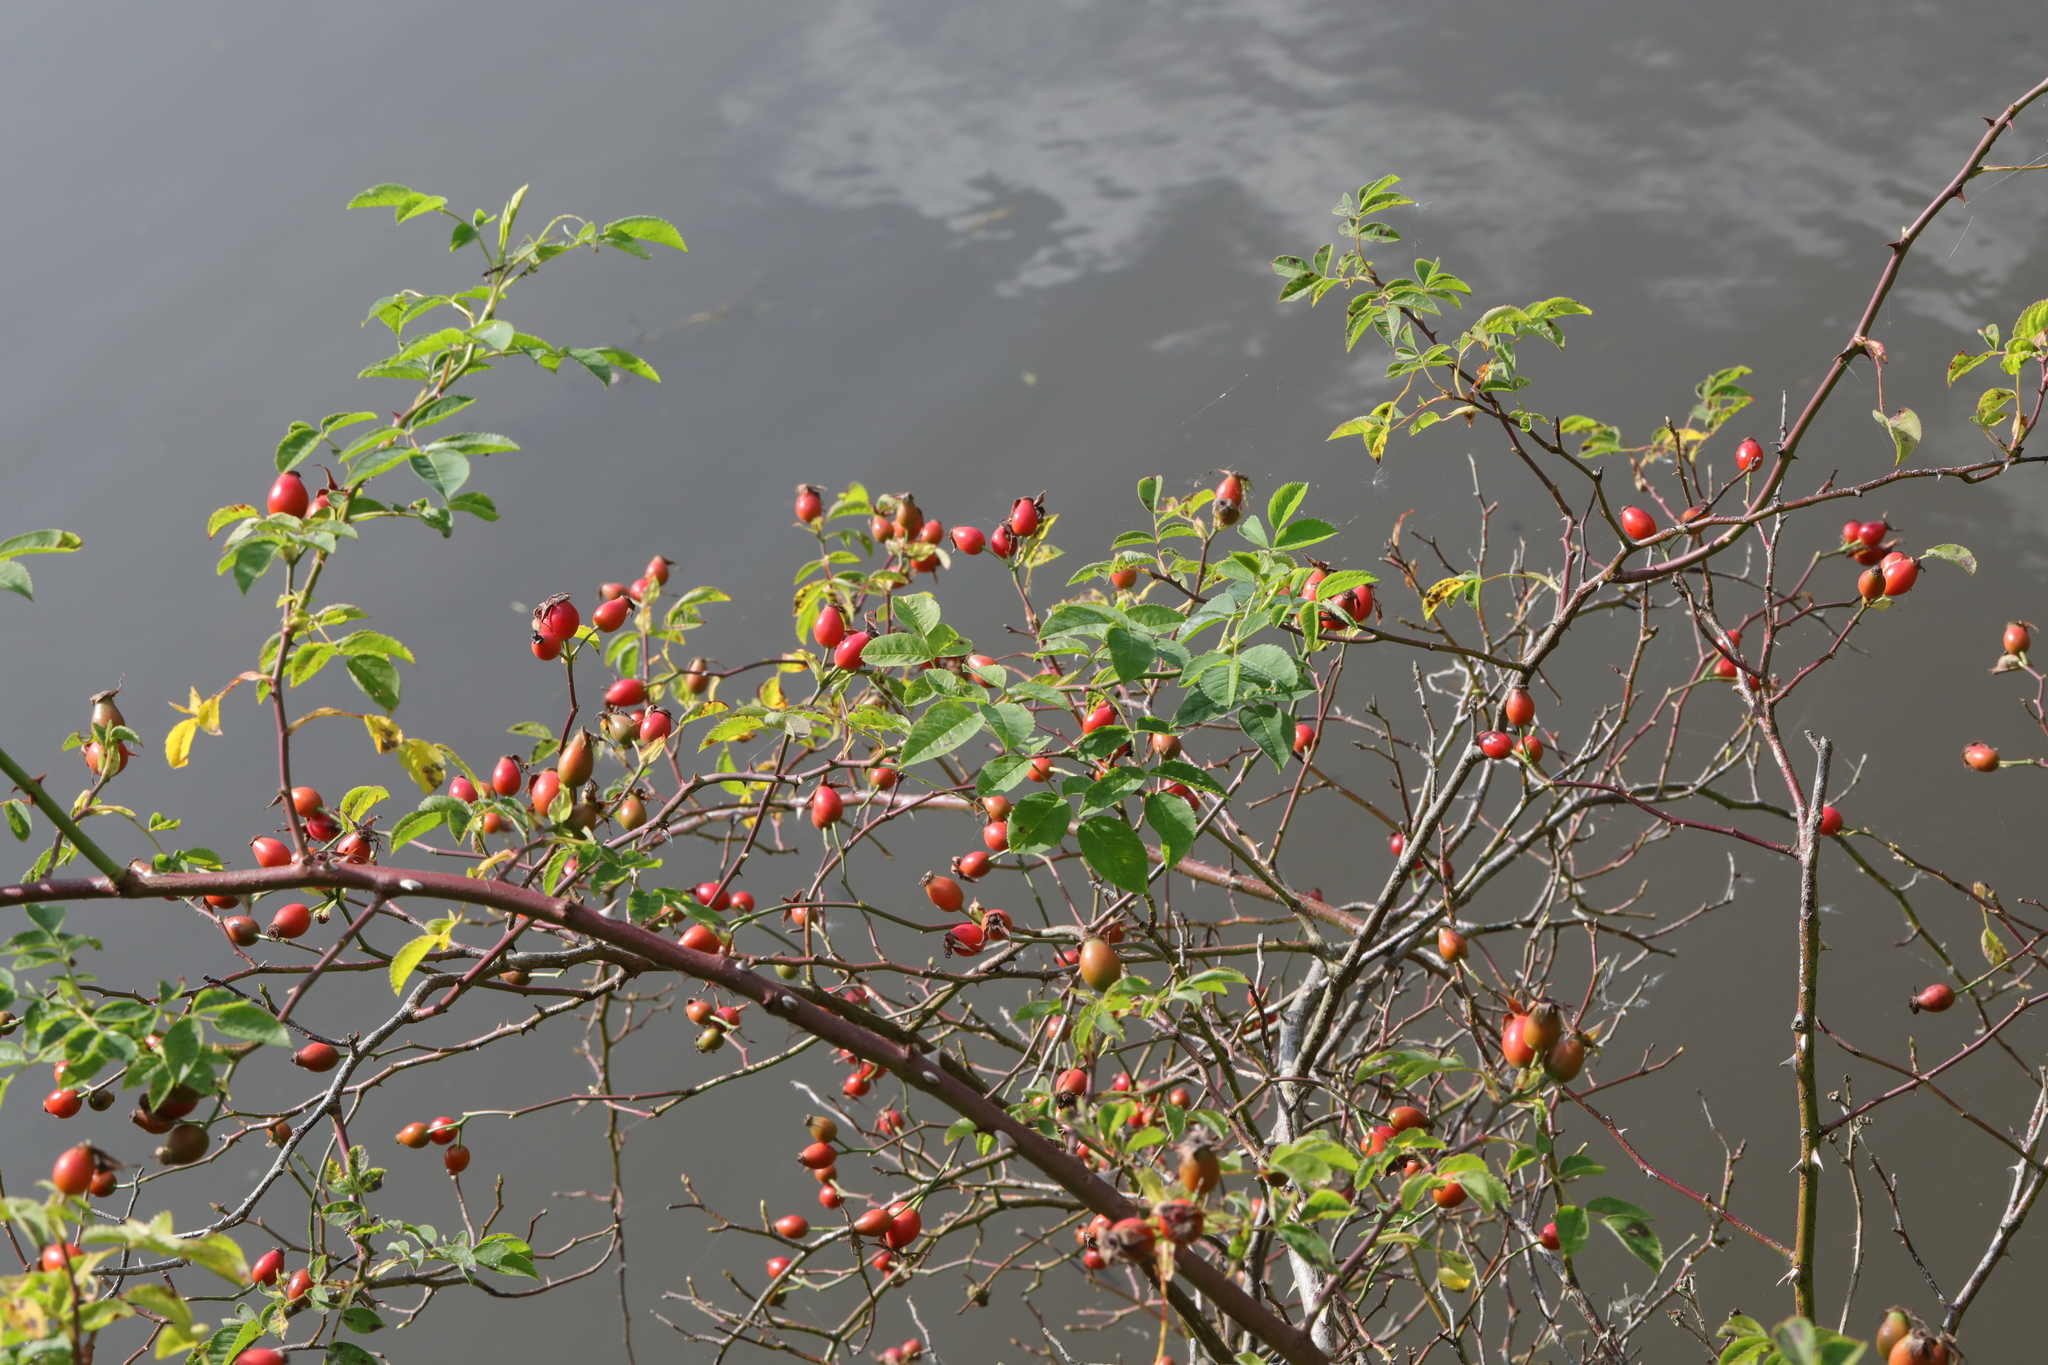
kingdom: Plantae
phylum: Tracheophyta
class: Magnoliopsida
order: Rosales
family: Rosaceae
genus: Rosa
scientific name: Rosa canina
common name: Dog rose
